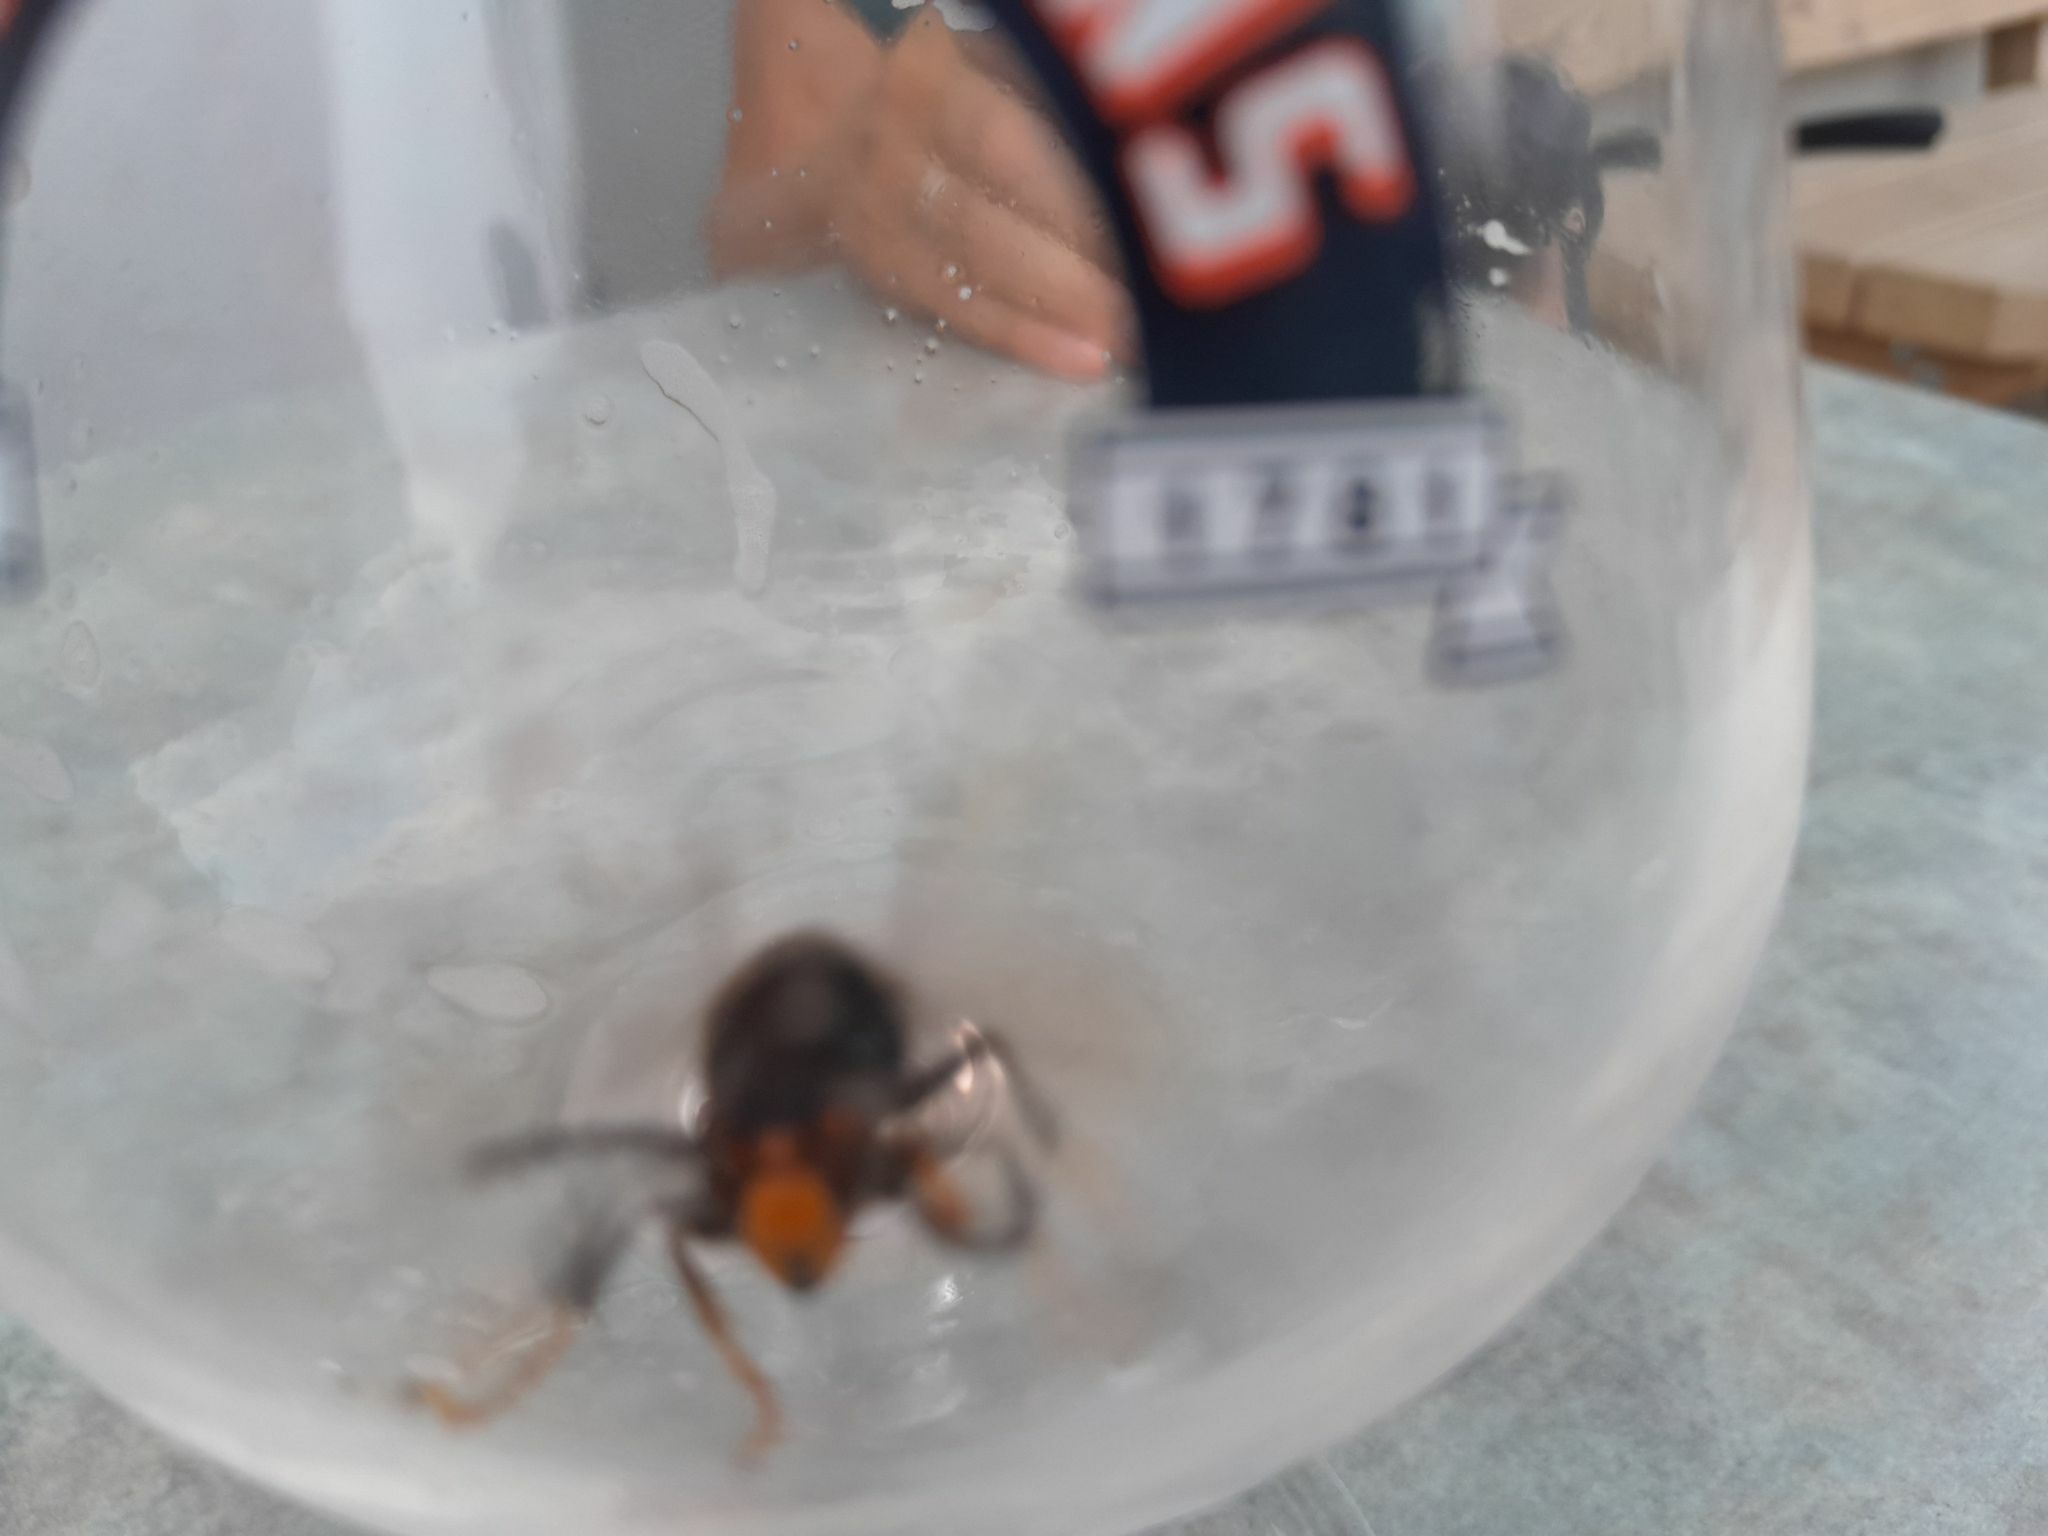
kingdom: Animalia
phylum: Arthropoda
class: Insecta
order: Hymenoptera
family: Vespidae
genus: Vespa
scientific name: Vespa velutina
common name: Asian hornet
